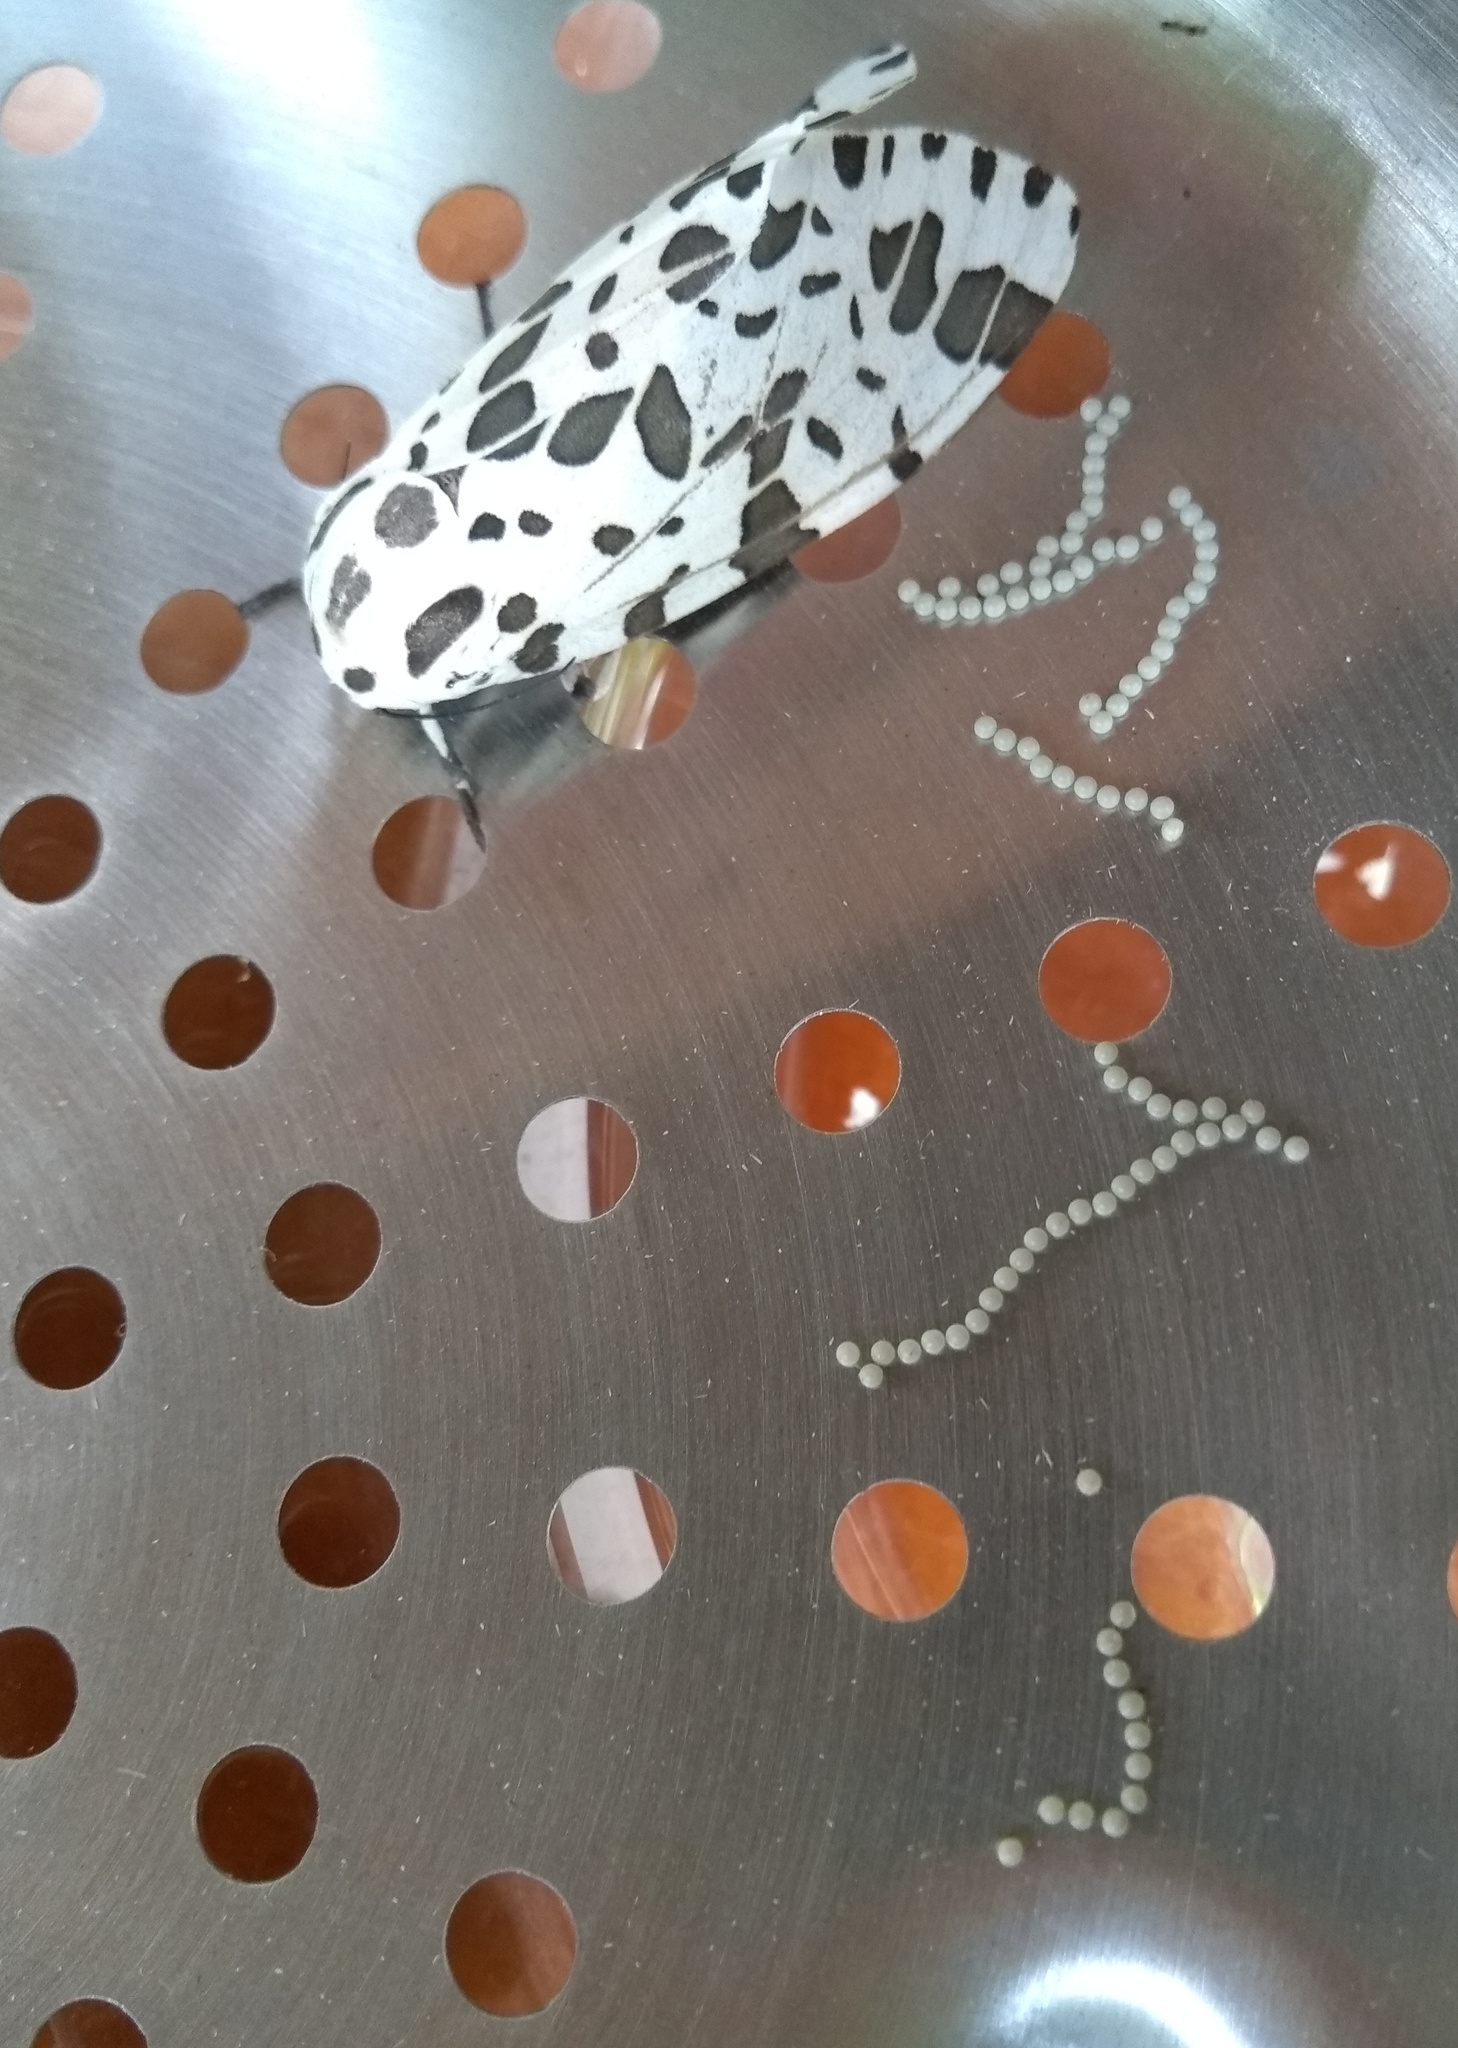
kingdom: Animalia
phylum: Arthropoda
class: Insecta
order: Lepidoptera
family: Erebidae
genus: Hypercompe
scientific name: Hypercompe brasiliensis
